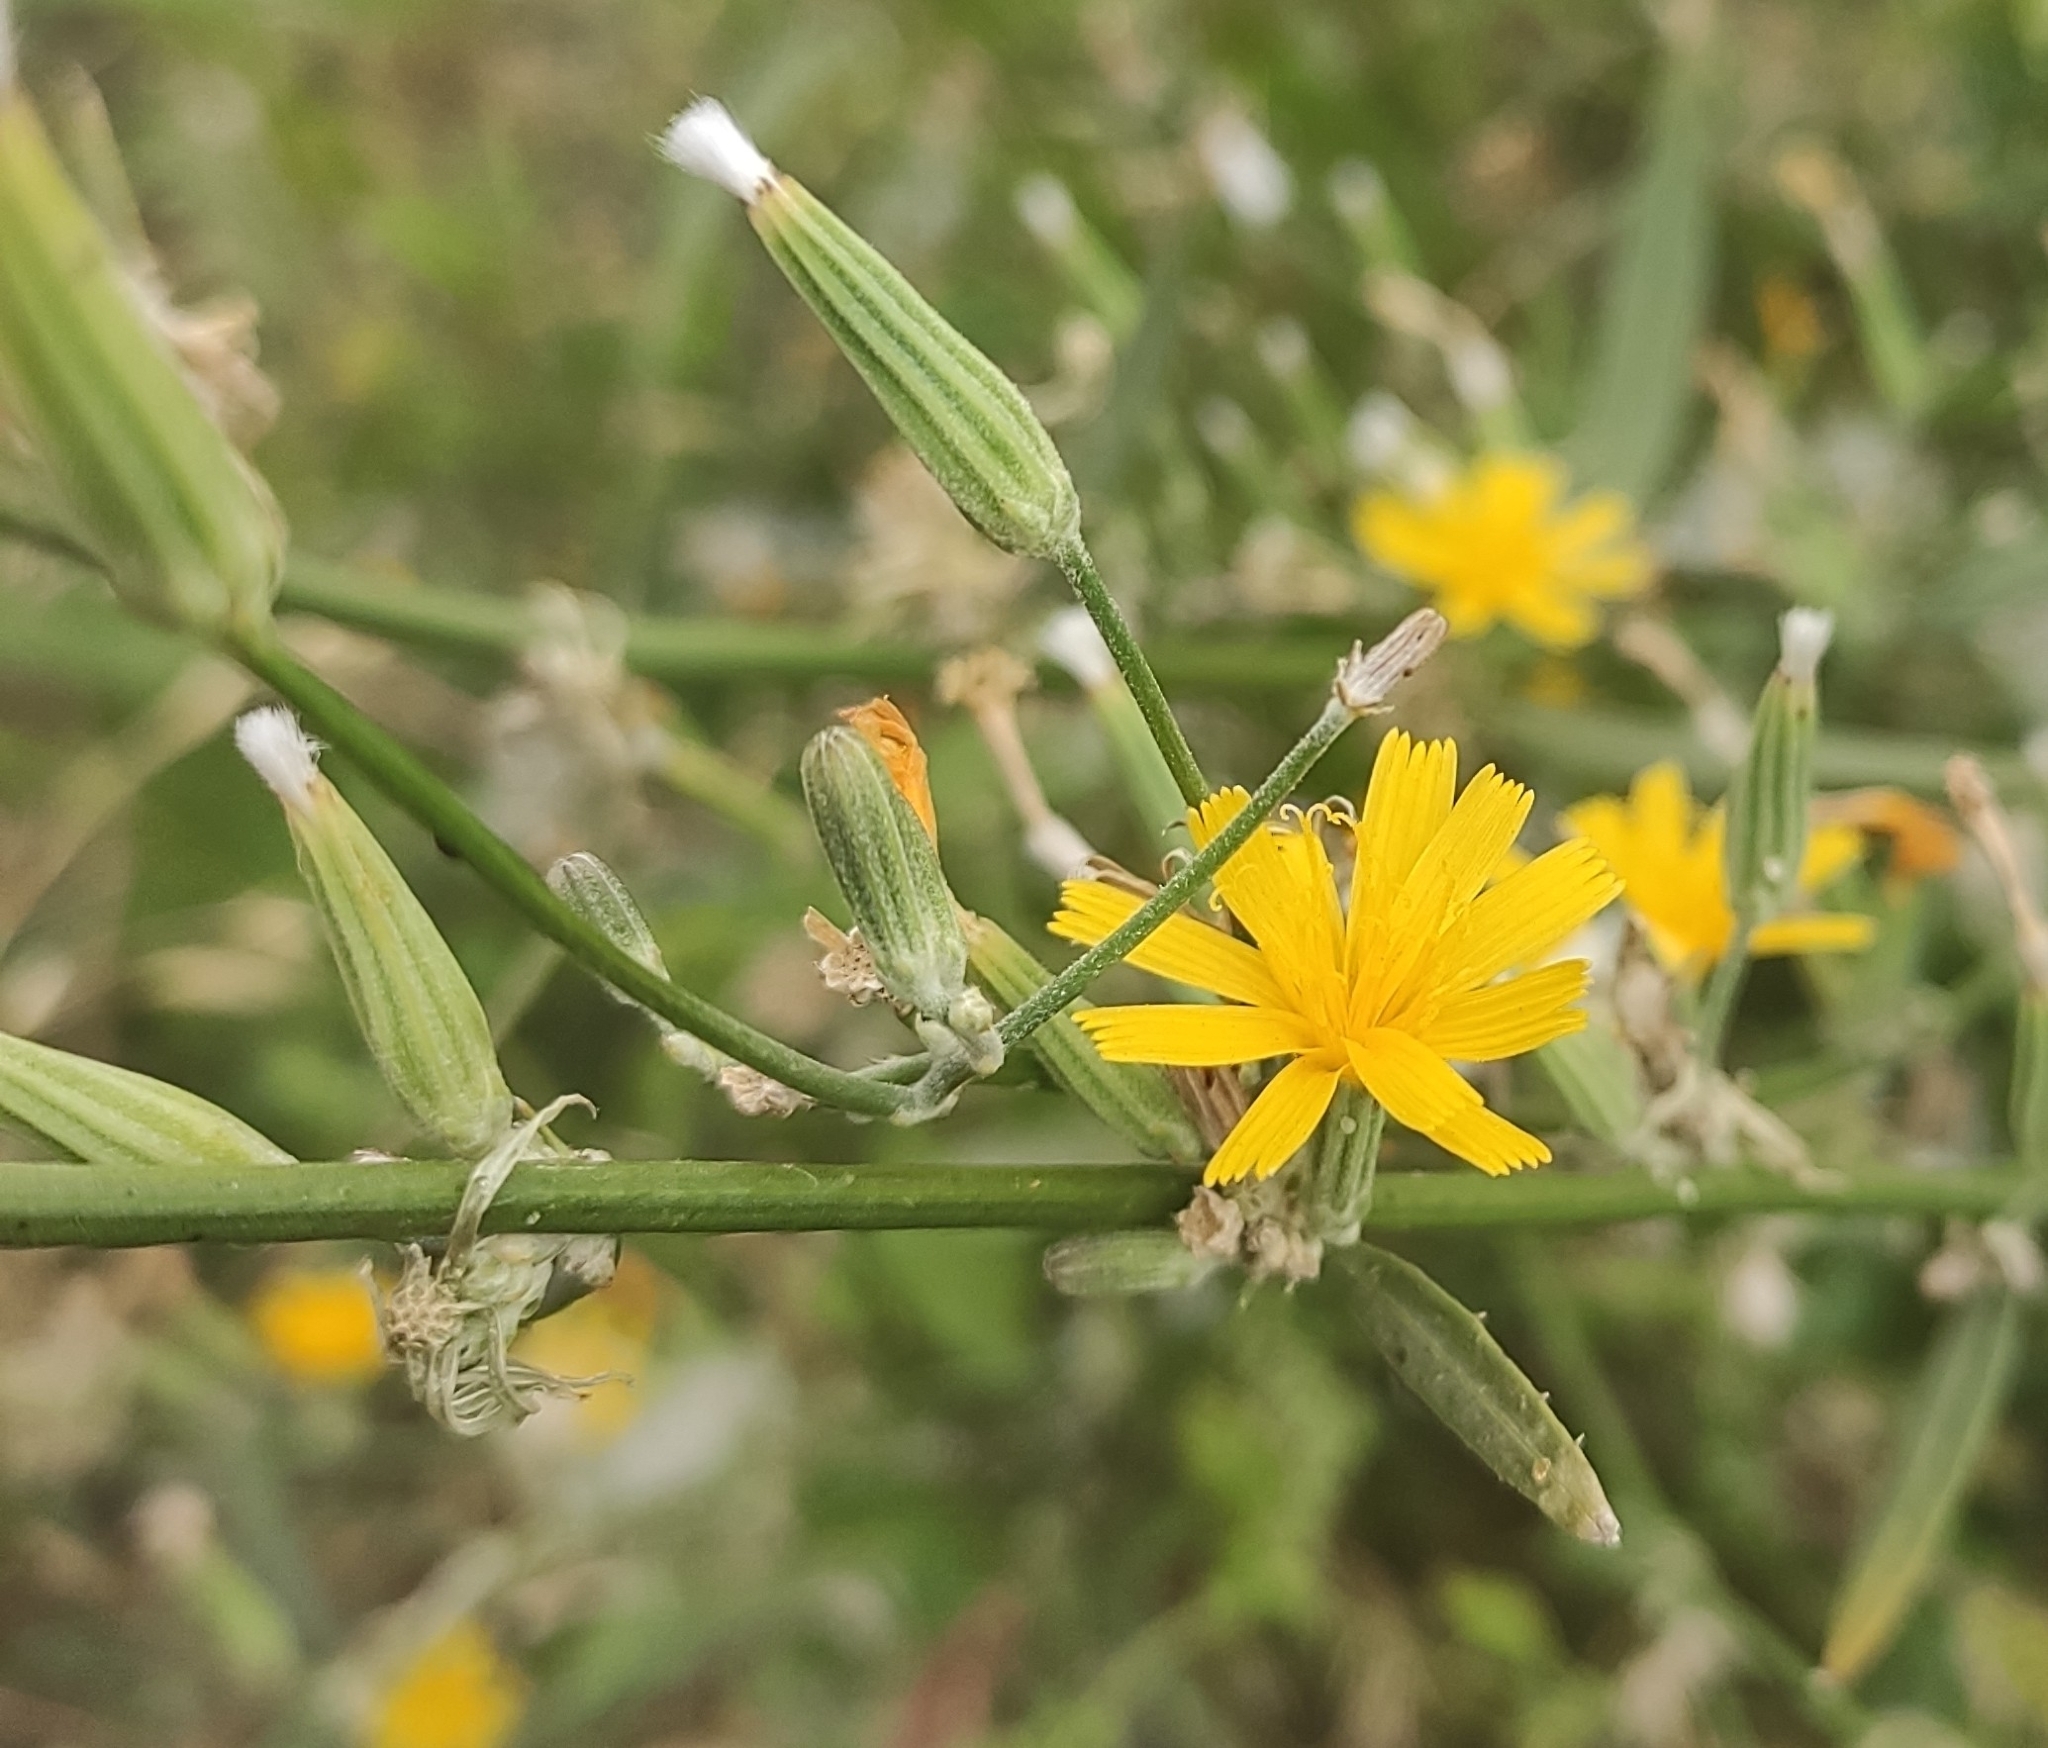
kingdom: Plantae
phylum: Tracheophyta
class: Magnoliopsida
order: Asterales
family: Asteraceae
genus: Chondrilla
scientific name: Chondrilla juncea
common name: Skeleton weed
